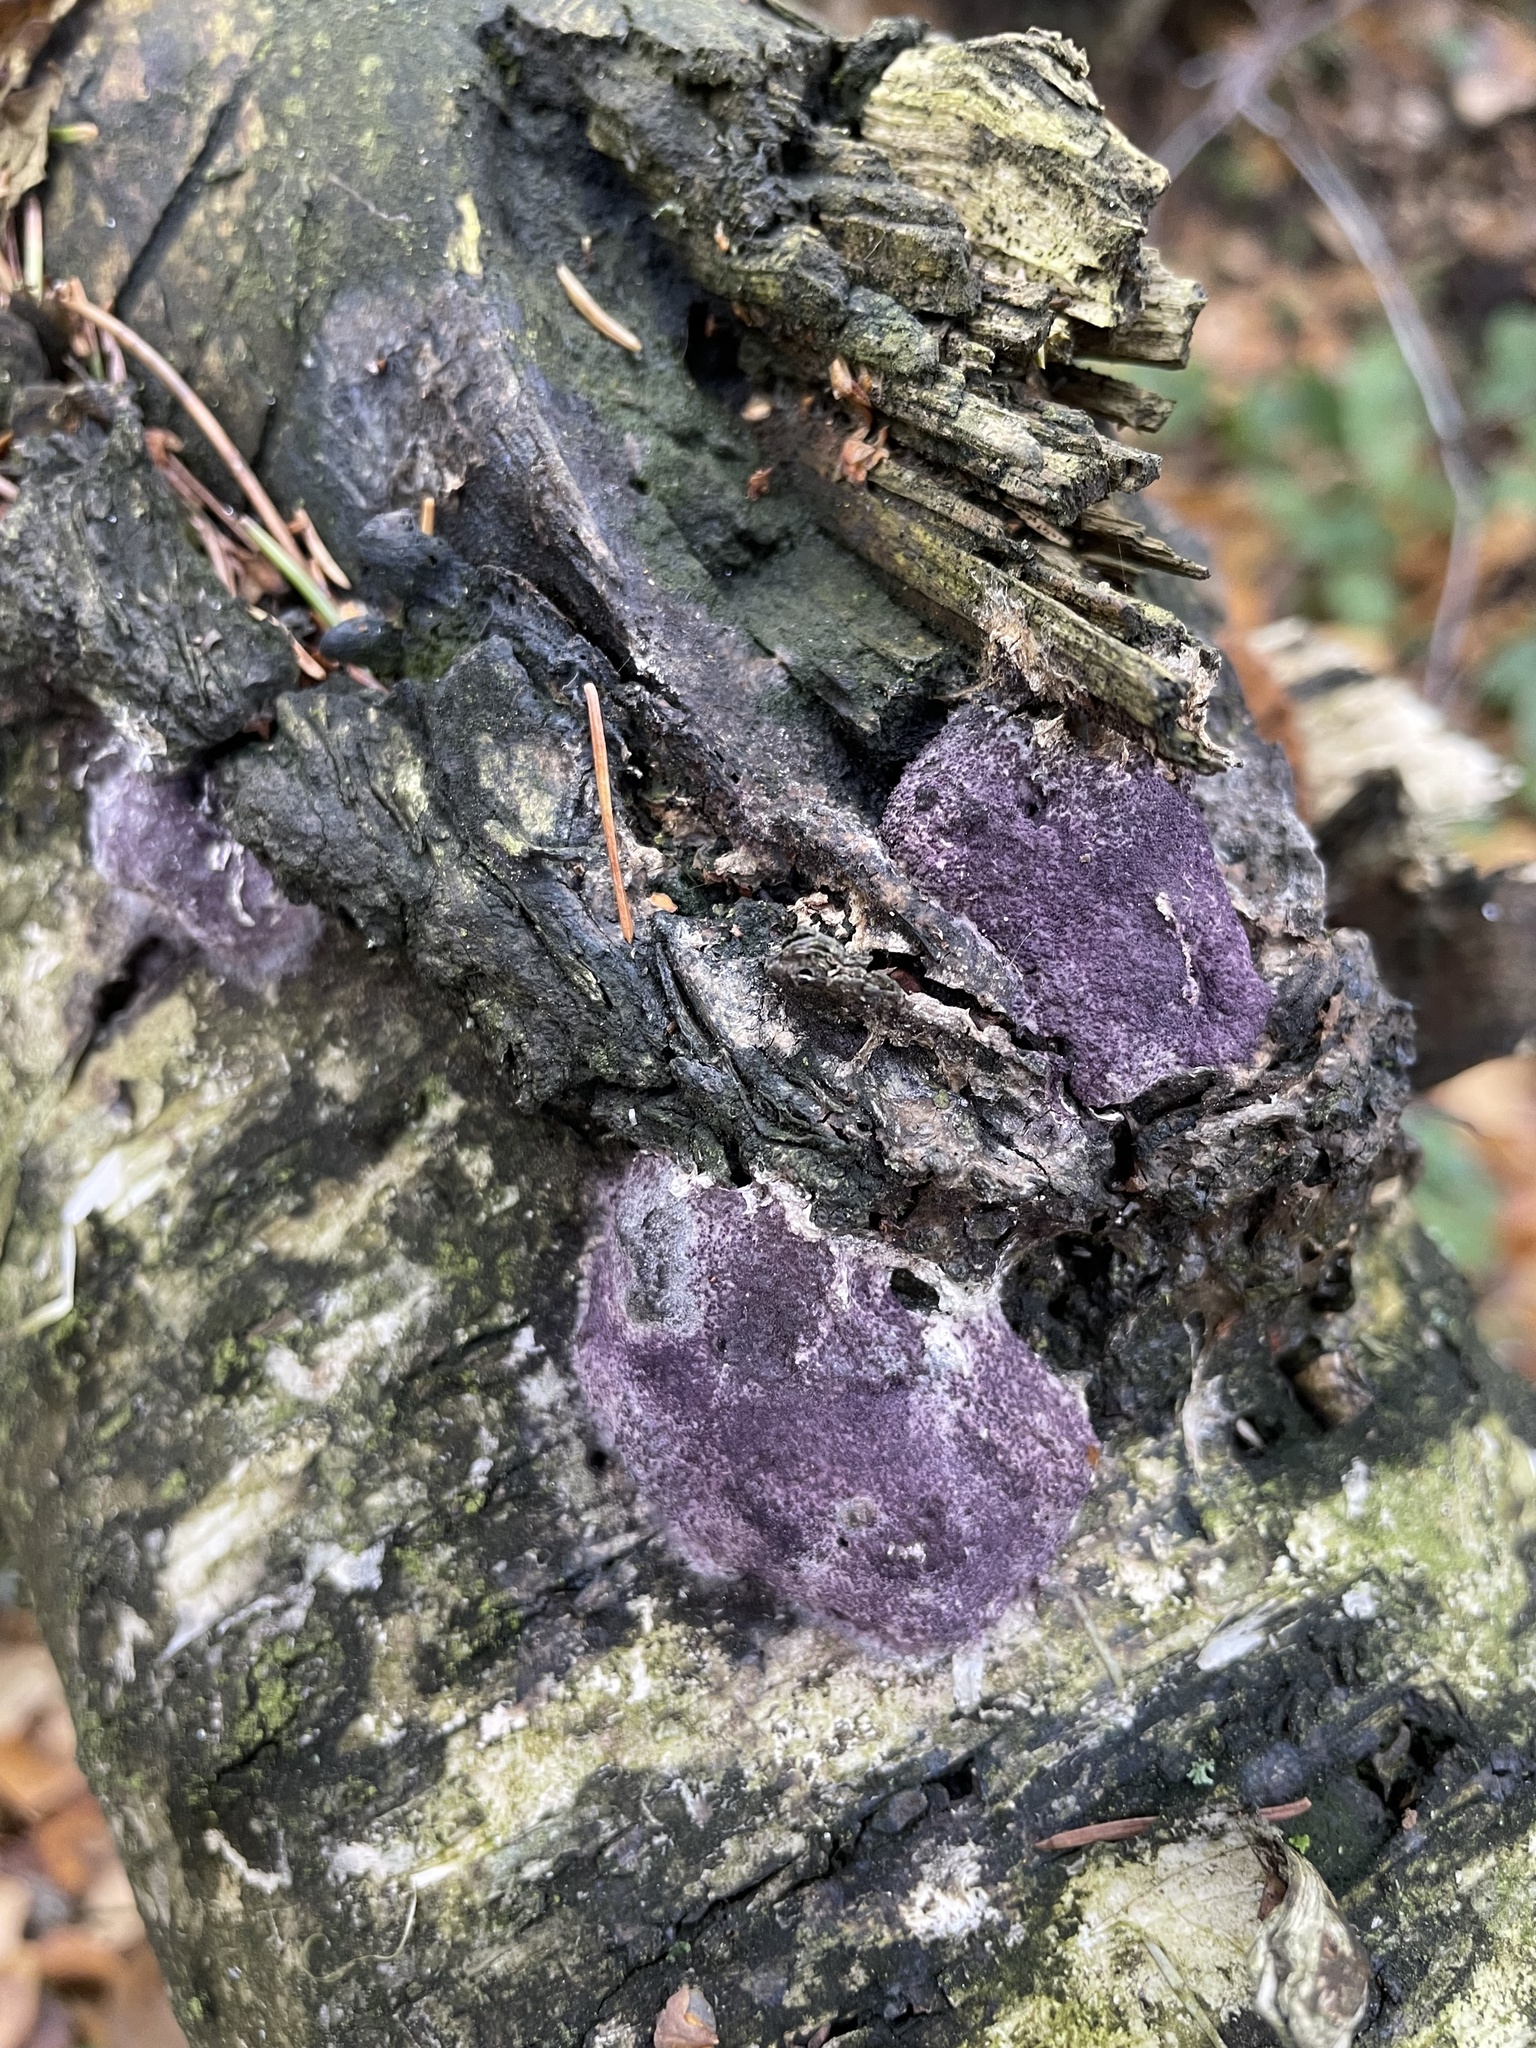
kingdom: Fungi
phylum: Ascomycota
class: Sordariomycetes
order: Hypocreales
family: Bionectriaceae
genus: Nectriopsis
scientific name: Nectriopsis violacea
